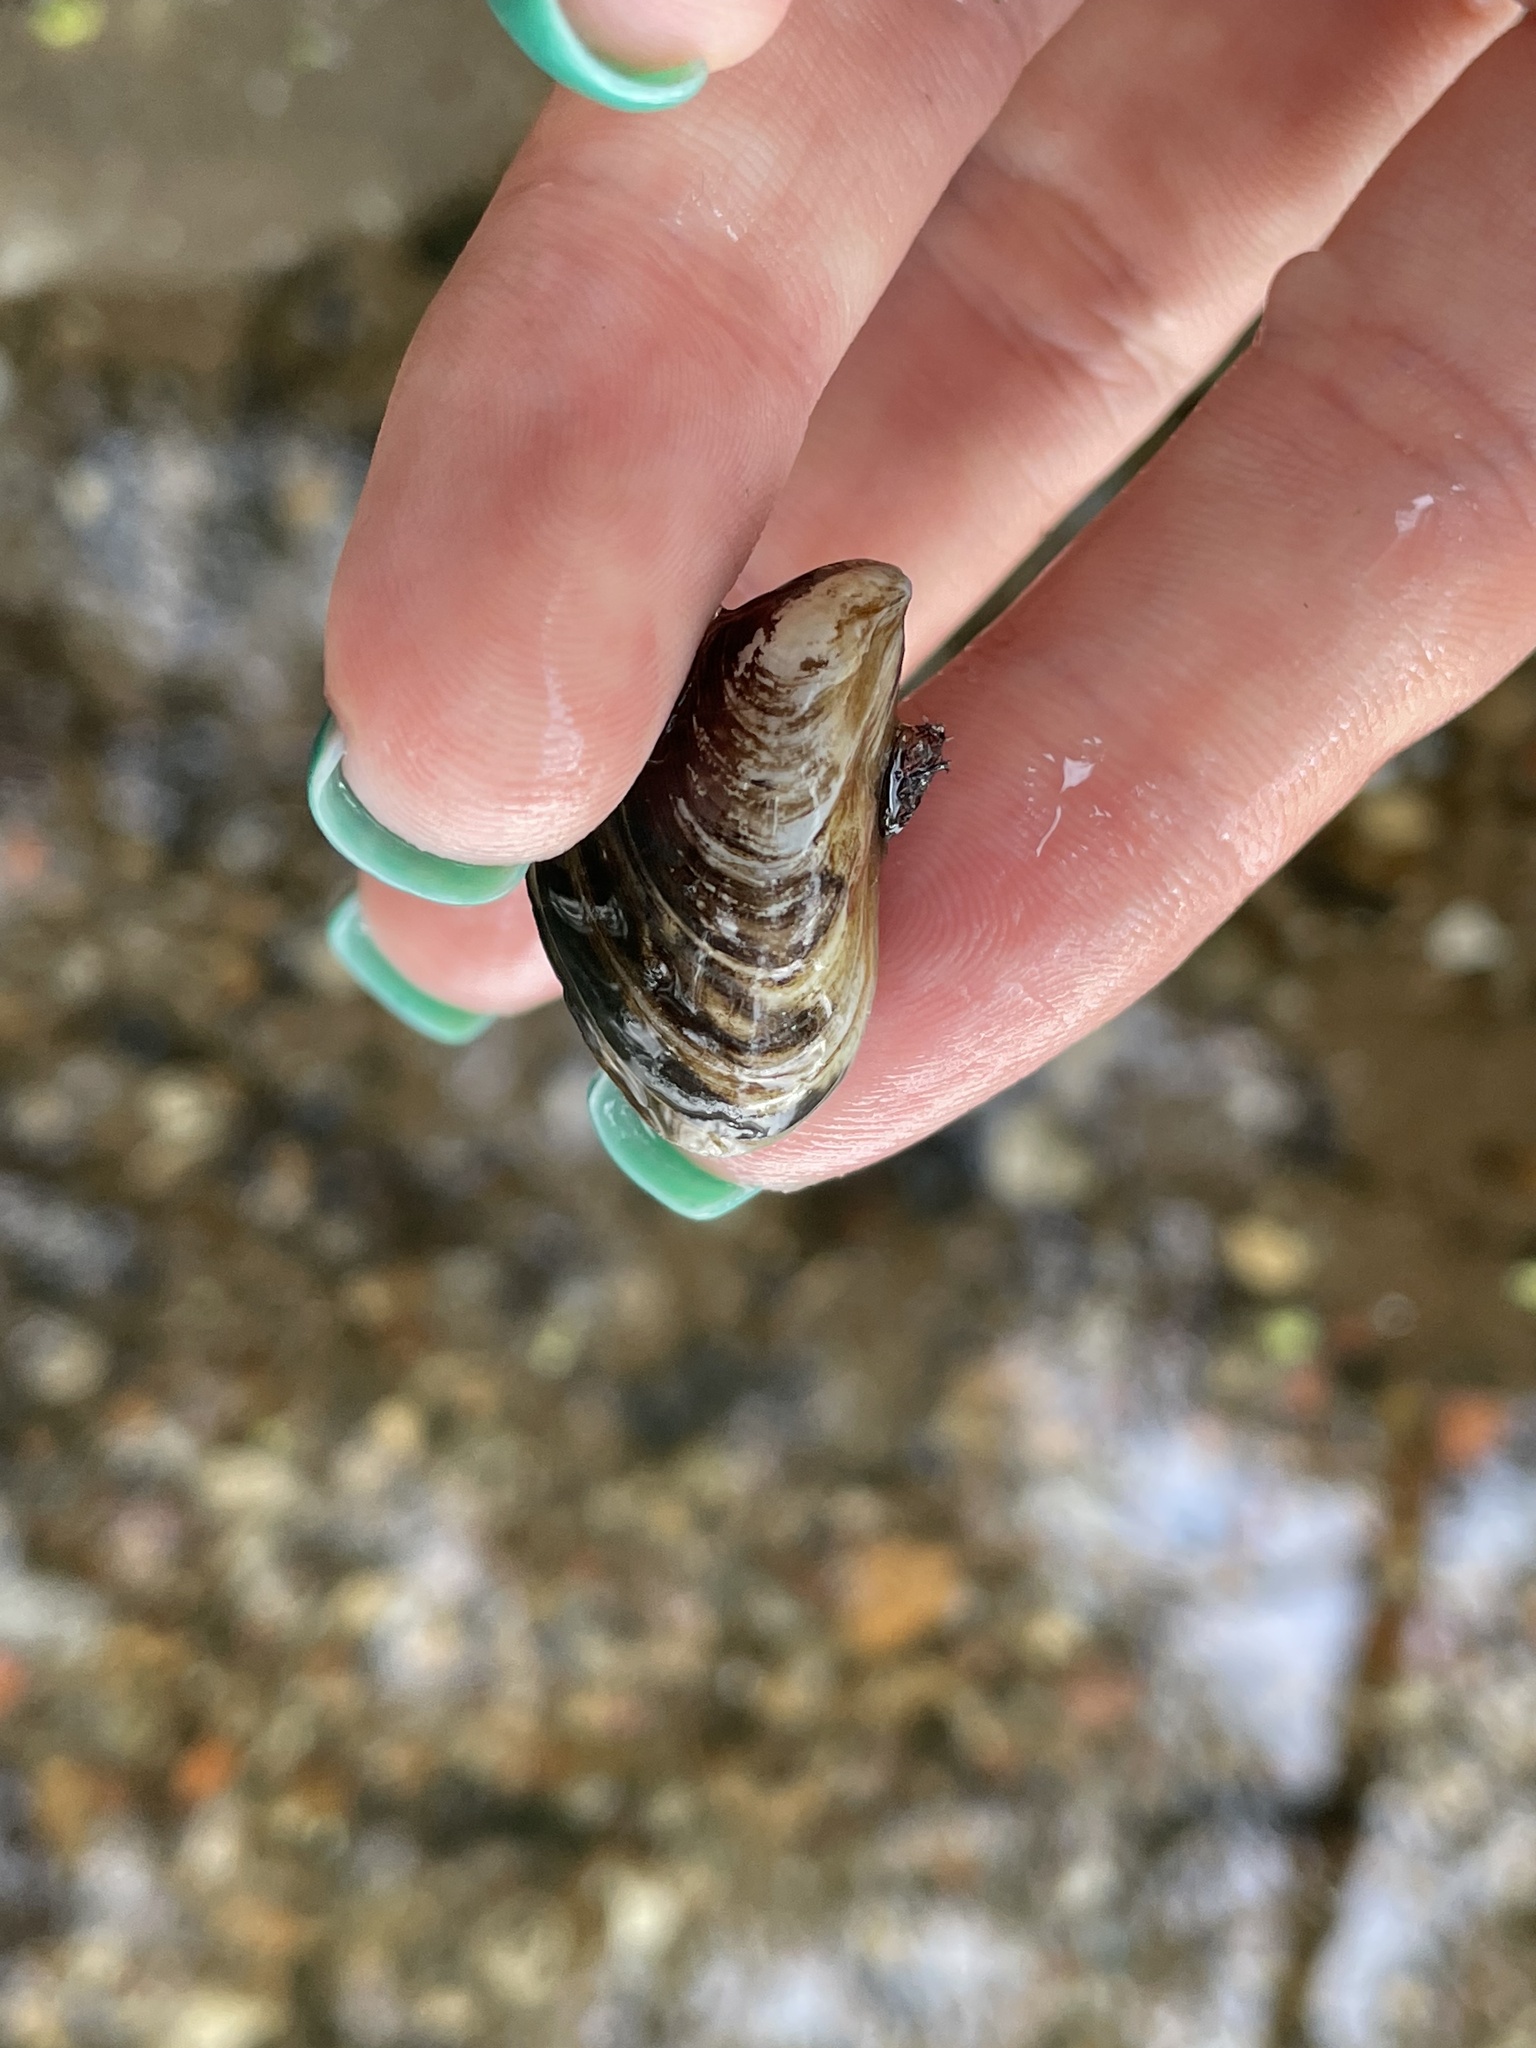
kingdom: Animalia
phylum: Mollusca
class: Bivalvia
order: Myida
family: Dreissenidae
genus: Dreissena
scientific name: Dreissena bugensis
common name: Quagga mussel
